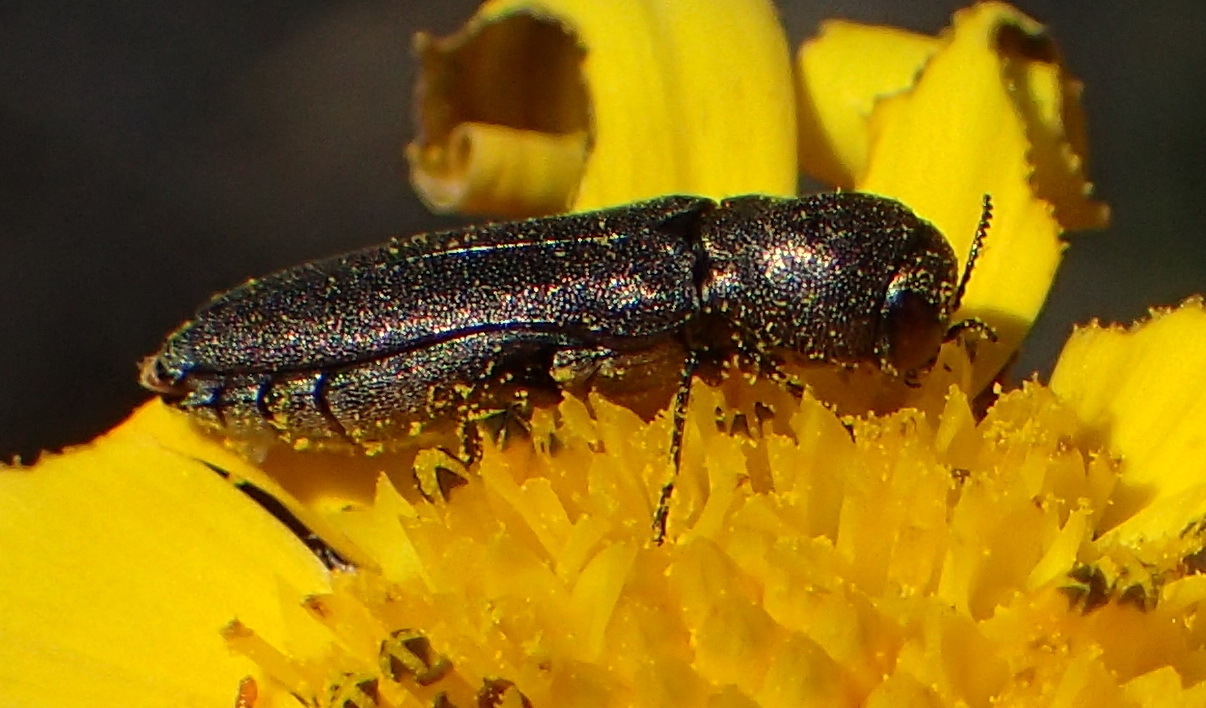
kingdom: Animalia
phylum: Arthropoda
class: Insecta
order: Coleoptera
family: Buprestidae
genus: Promeliboeus
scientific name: Promeliboeus strandi
